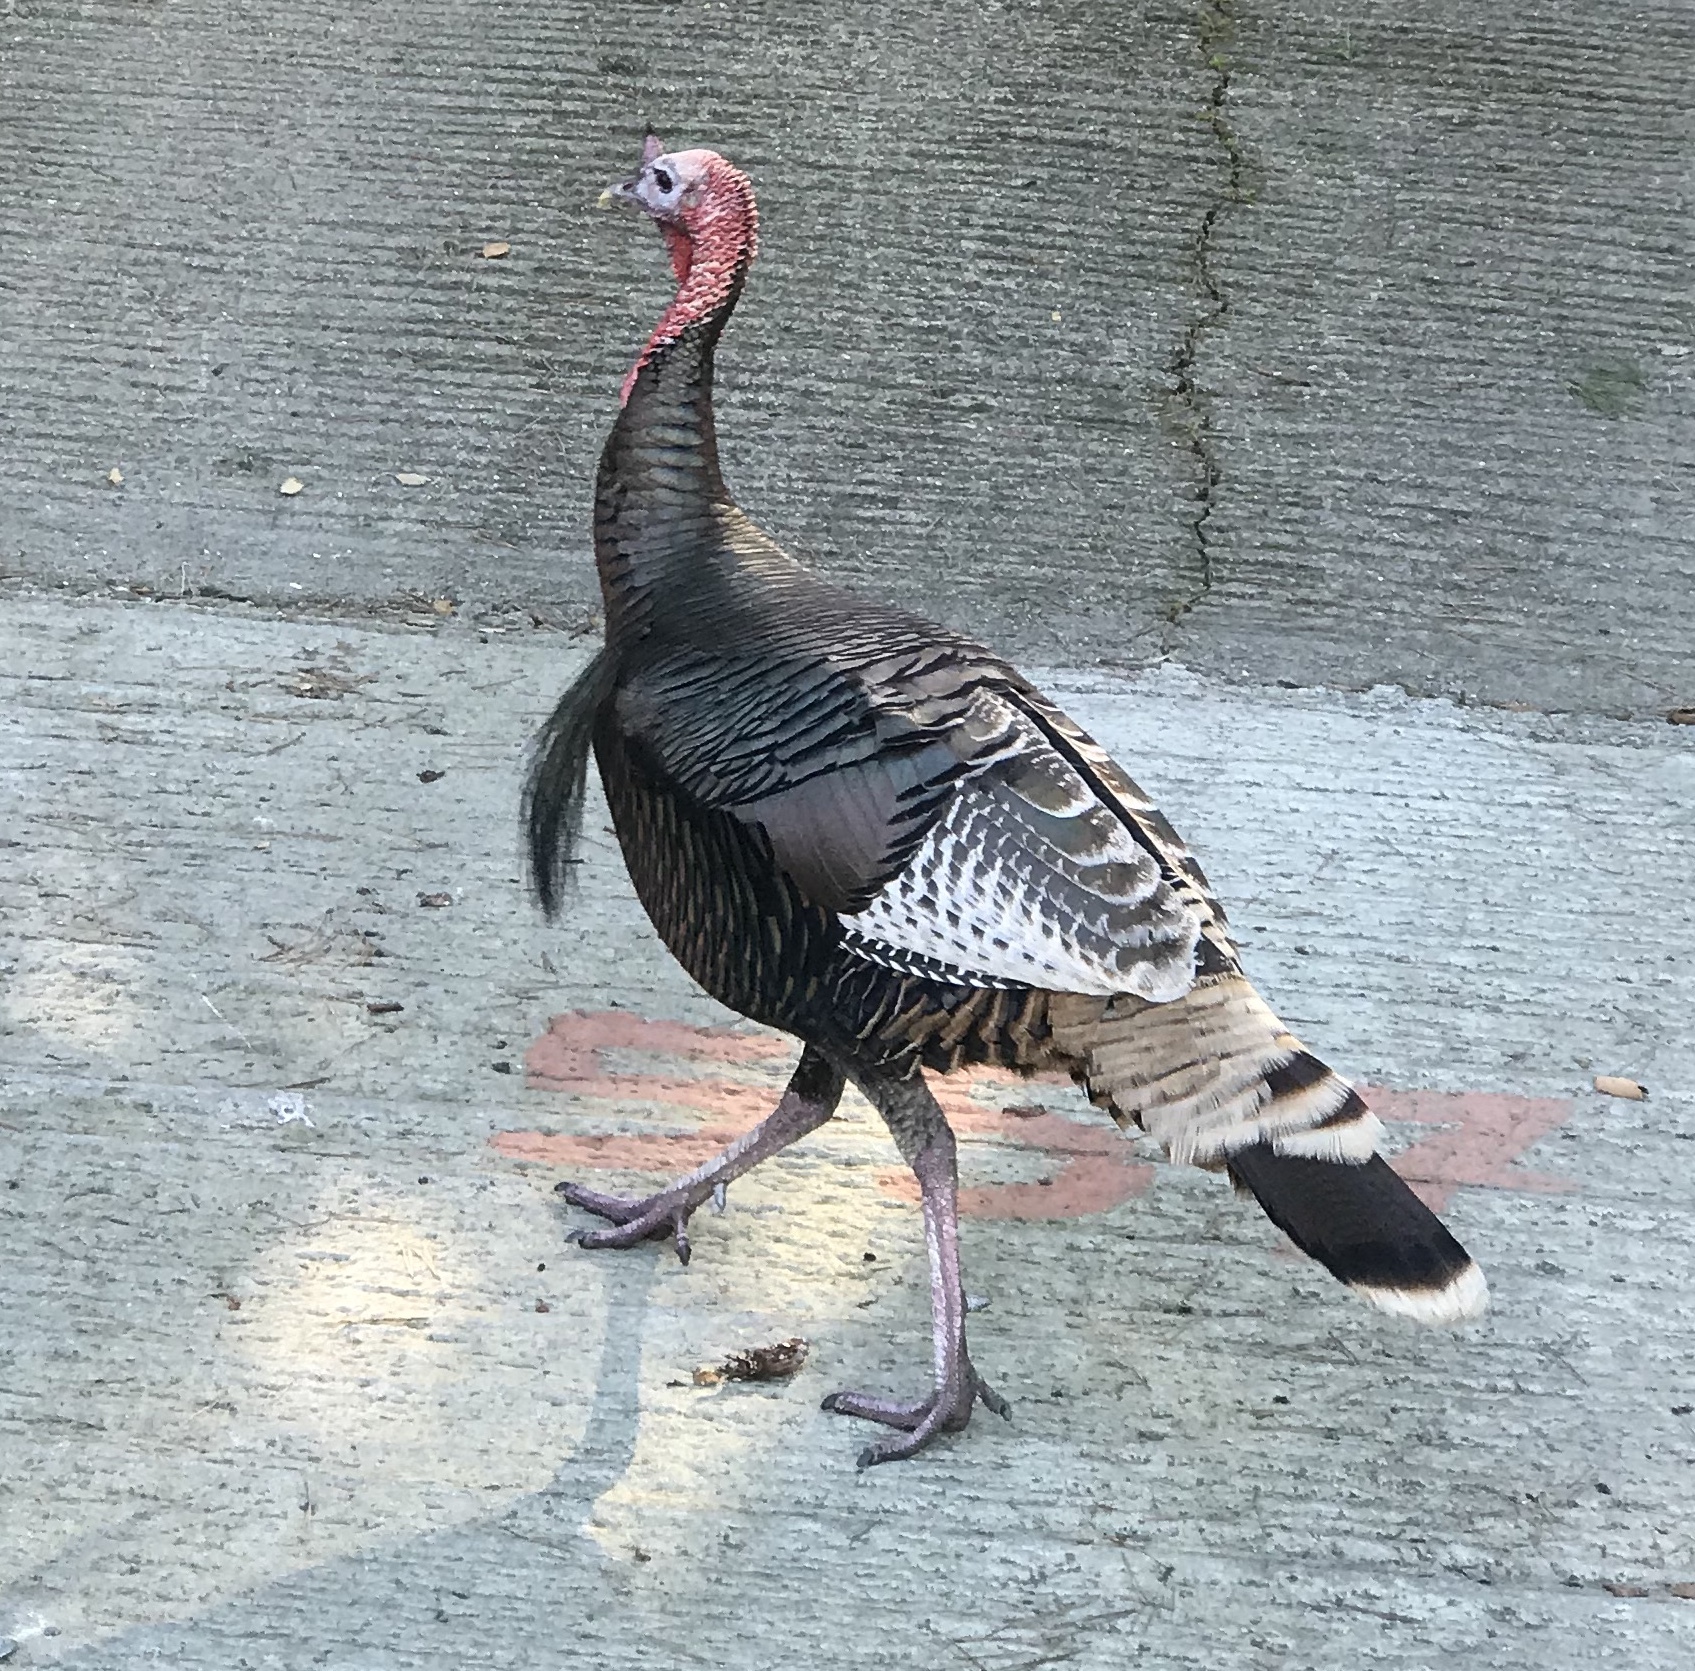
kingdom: Animalia
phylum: Chordata
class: Aves
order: Galliformes
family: Phasianidae
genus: Meleagris
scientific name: Meleagris gallopavo
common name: Wild turkey
